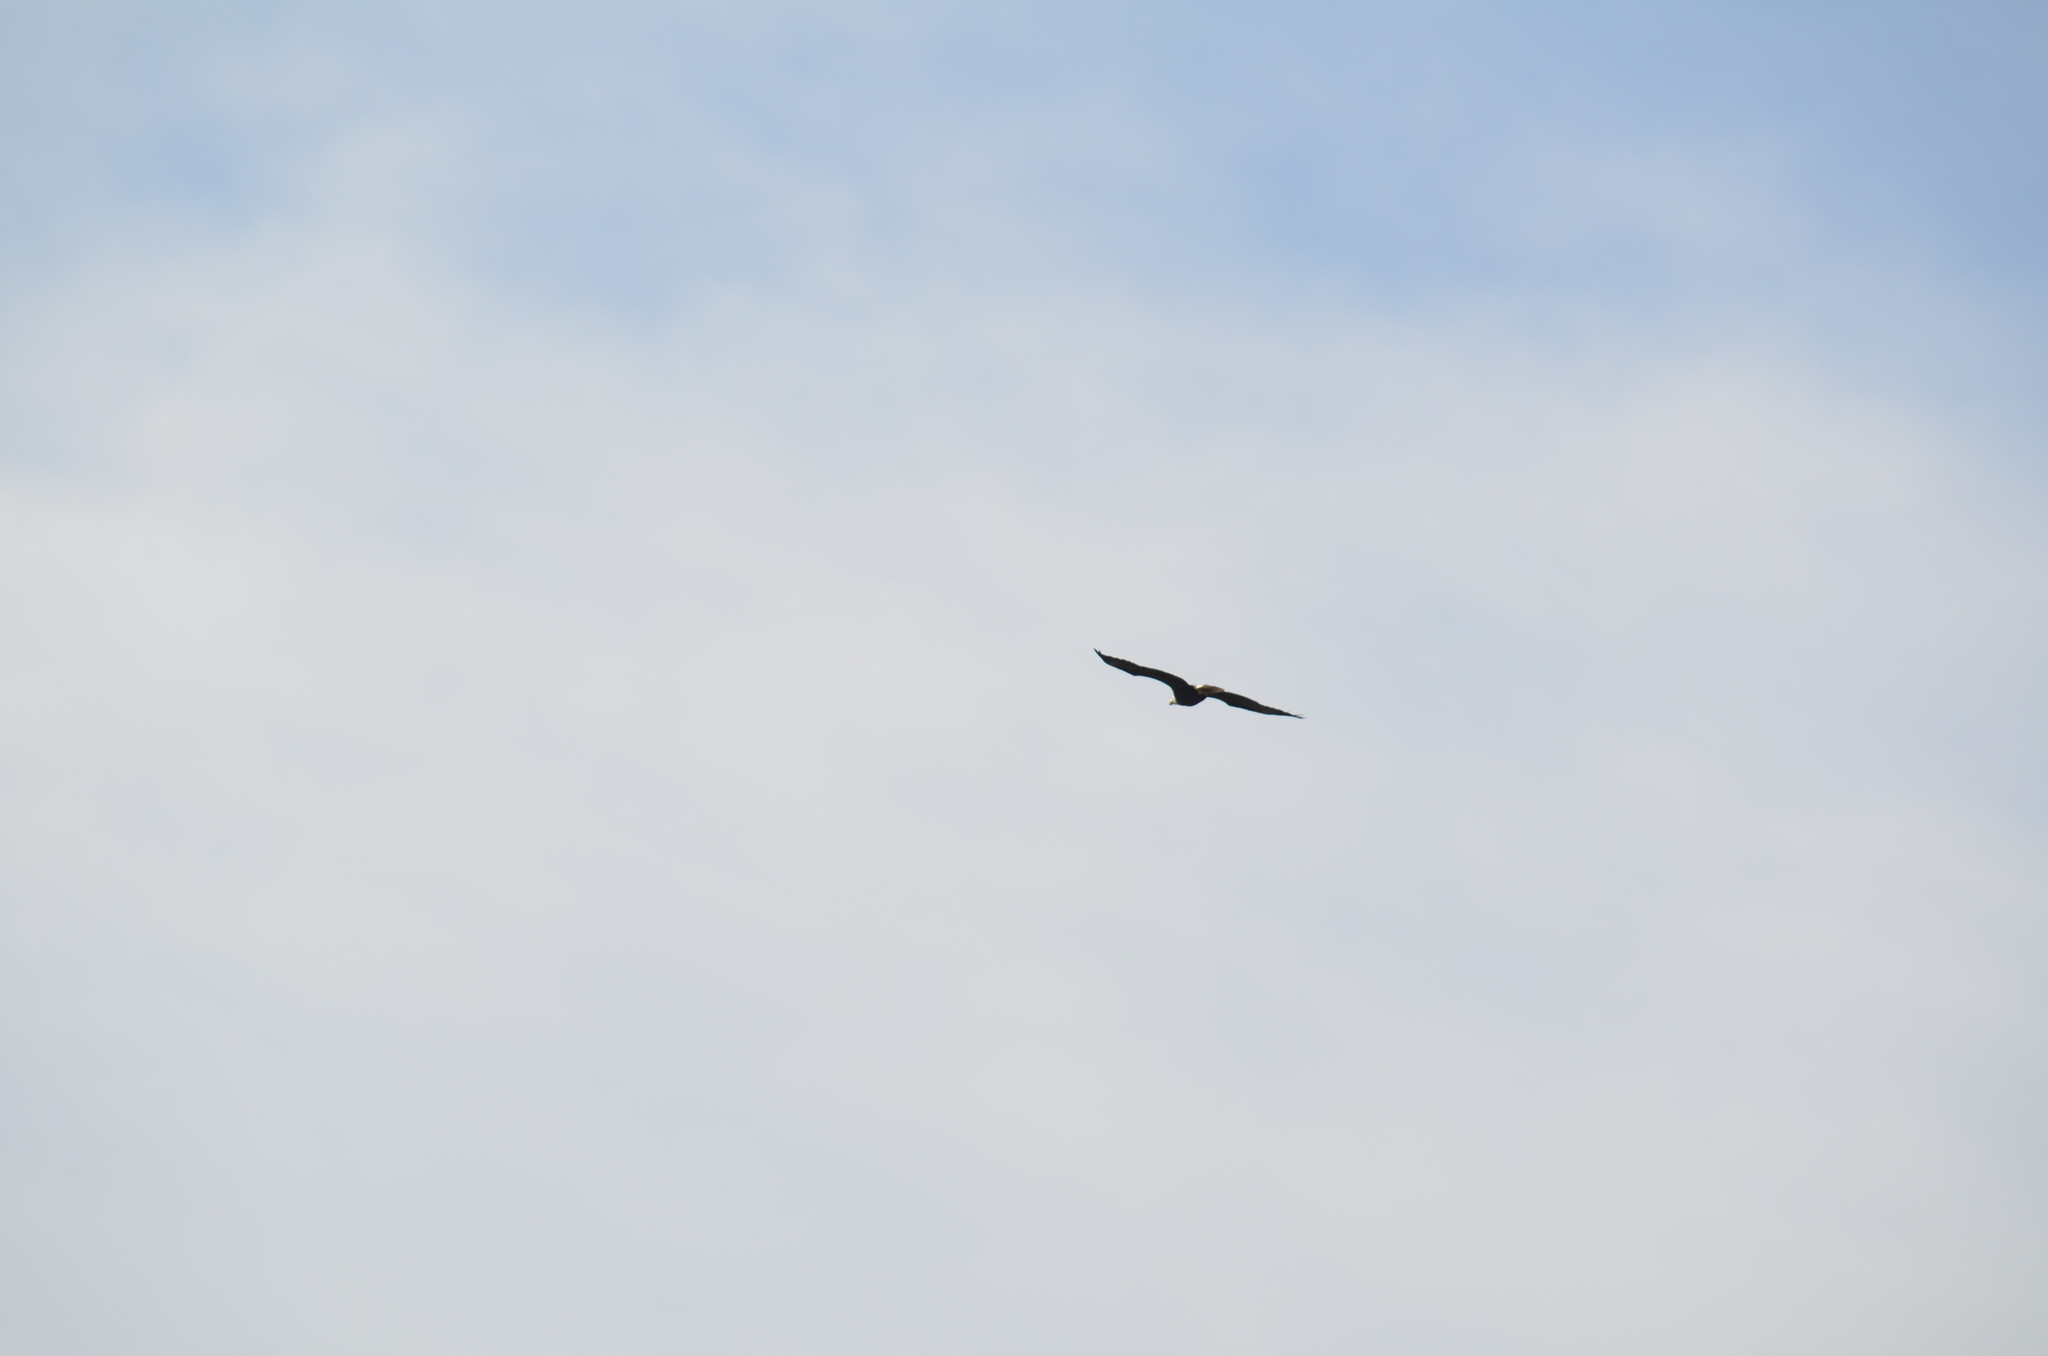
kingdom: Animalia
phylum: Chordata
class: Aves
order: Accipitriformes
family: Accipitridae
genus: Haliaeetus
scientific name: Haliaeetus leucocephalus
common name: Bald eagle
